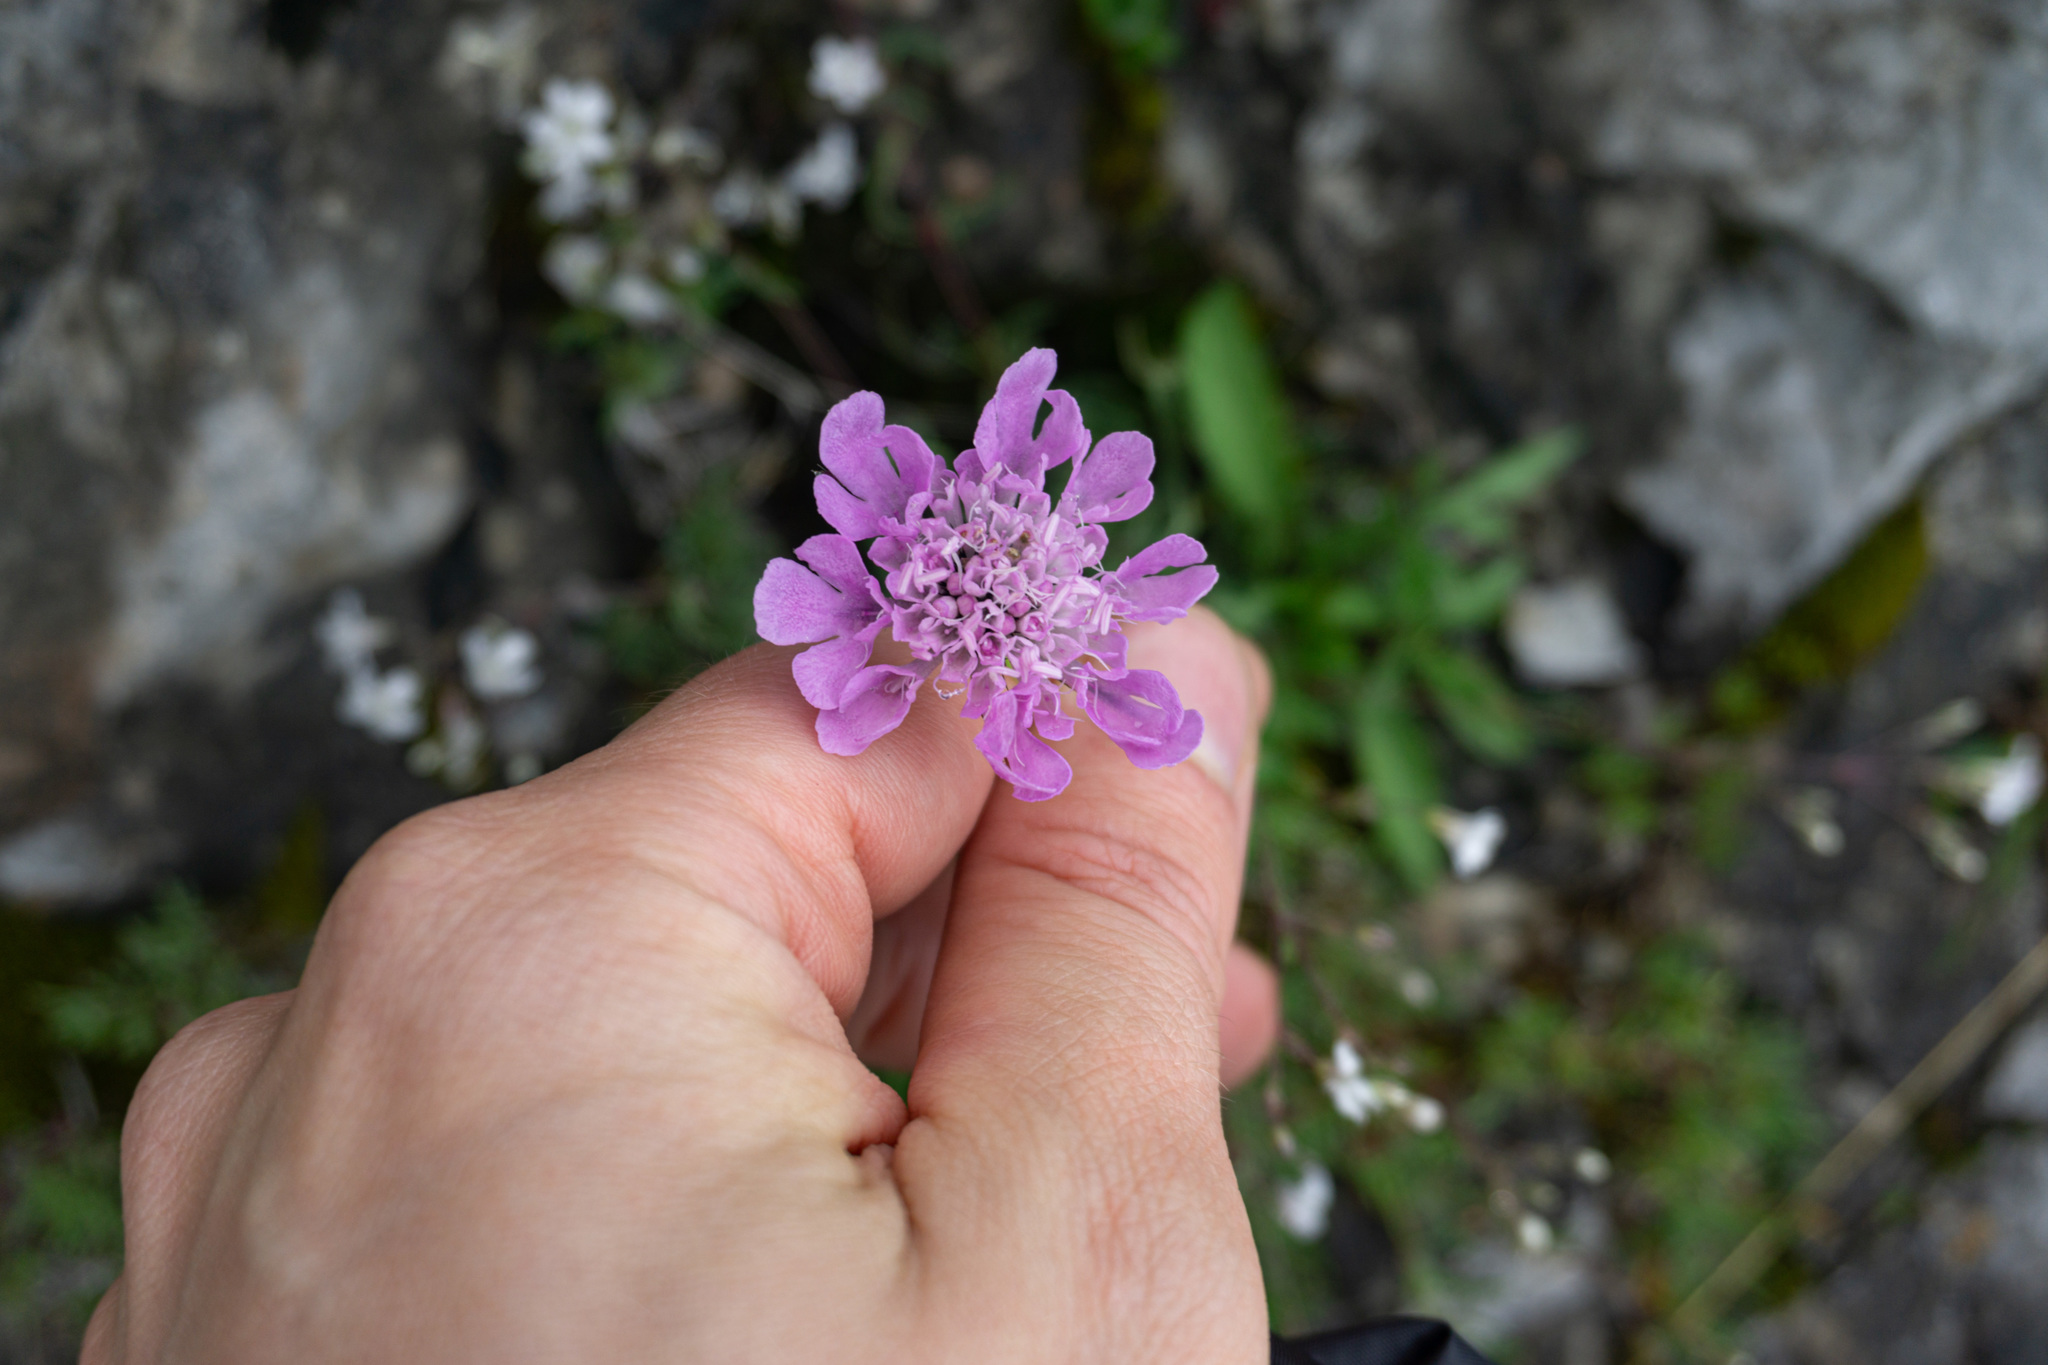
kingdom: Plantae
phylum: Tracheophyta
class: Magnoliopsida
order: Dipsacales
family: Caprifoliaceae
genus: Scabiosa
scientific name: Scabiosa lucida
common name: Shining scabious
